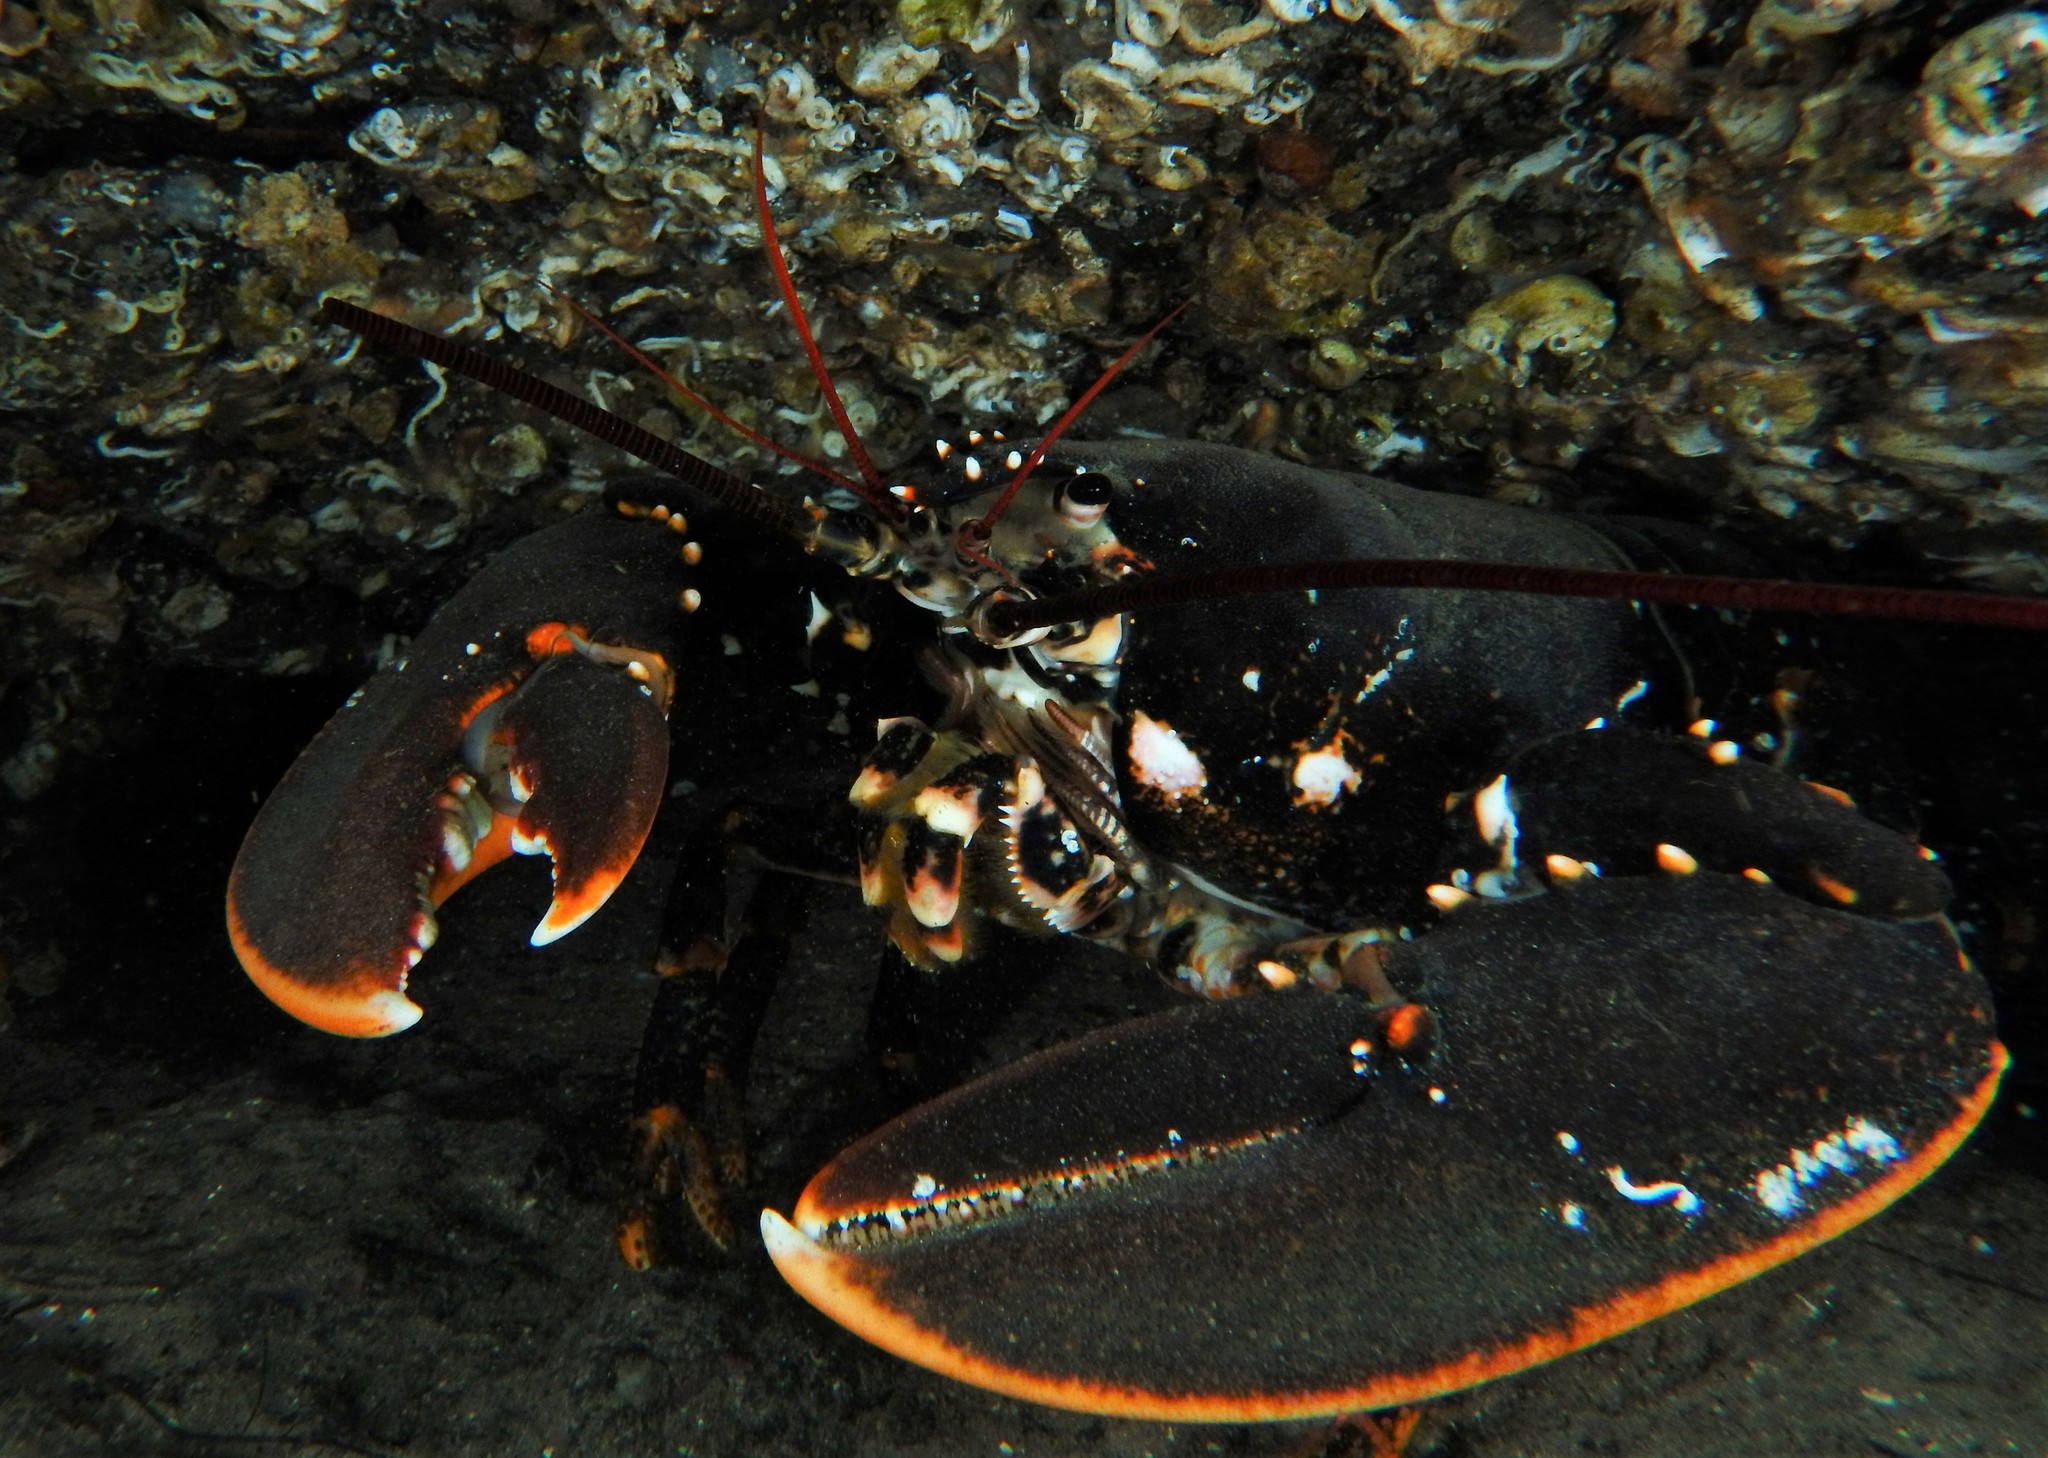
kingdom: Animalia
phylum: Arthropoda
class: Malacostraca
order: Decapoda
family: Nephropidae
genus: Homarus
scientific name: Homarus gammarus
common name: European lobster
